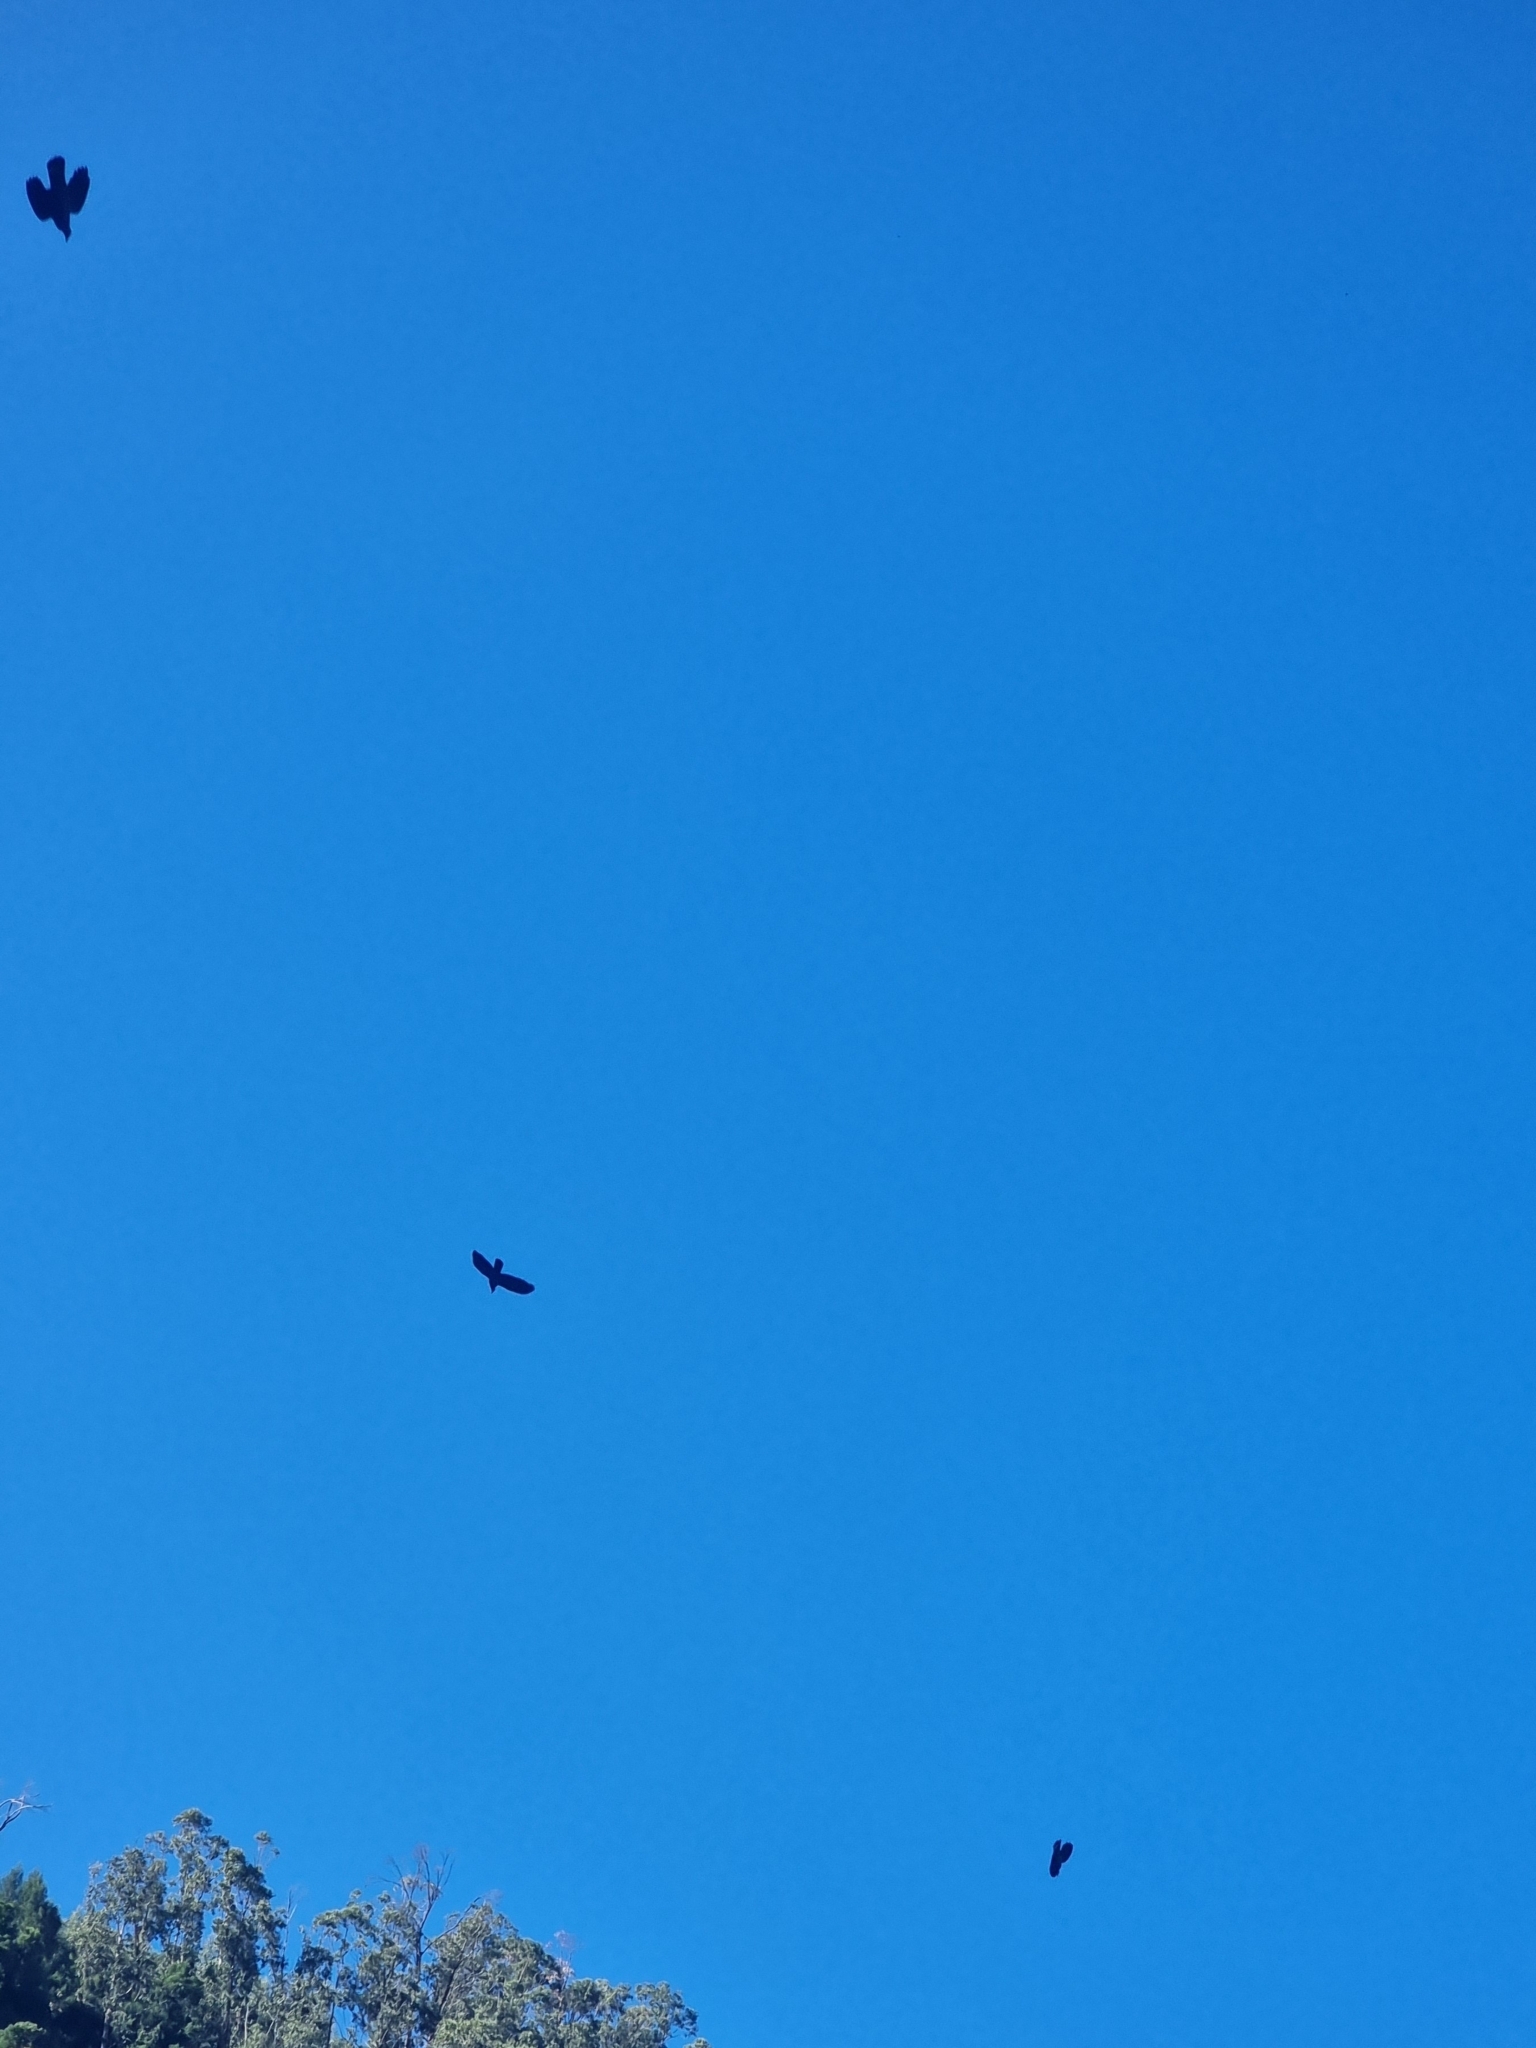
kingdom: Animalia
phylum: Chordata
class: Aves
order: Columbiformes
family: Columbidae
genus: Columba
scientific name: Columba trocaz
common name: Trocaz pigeon
